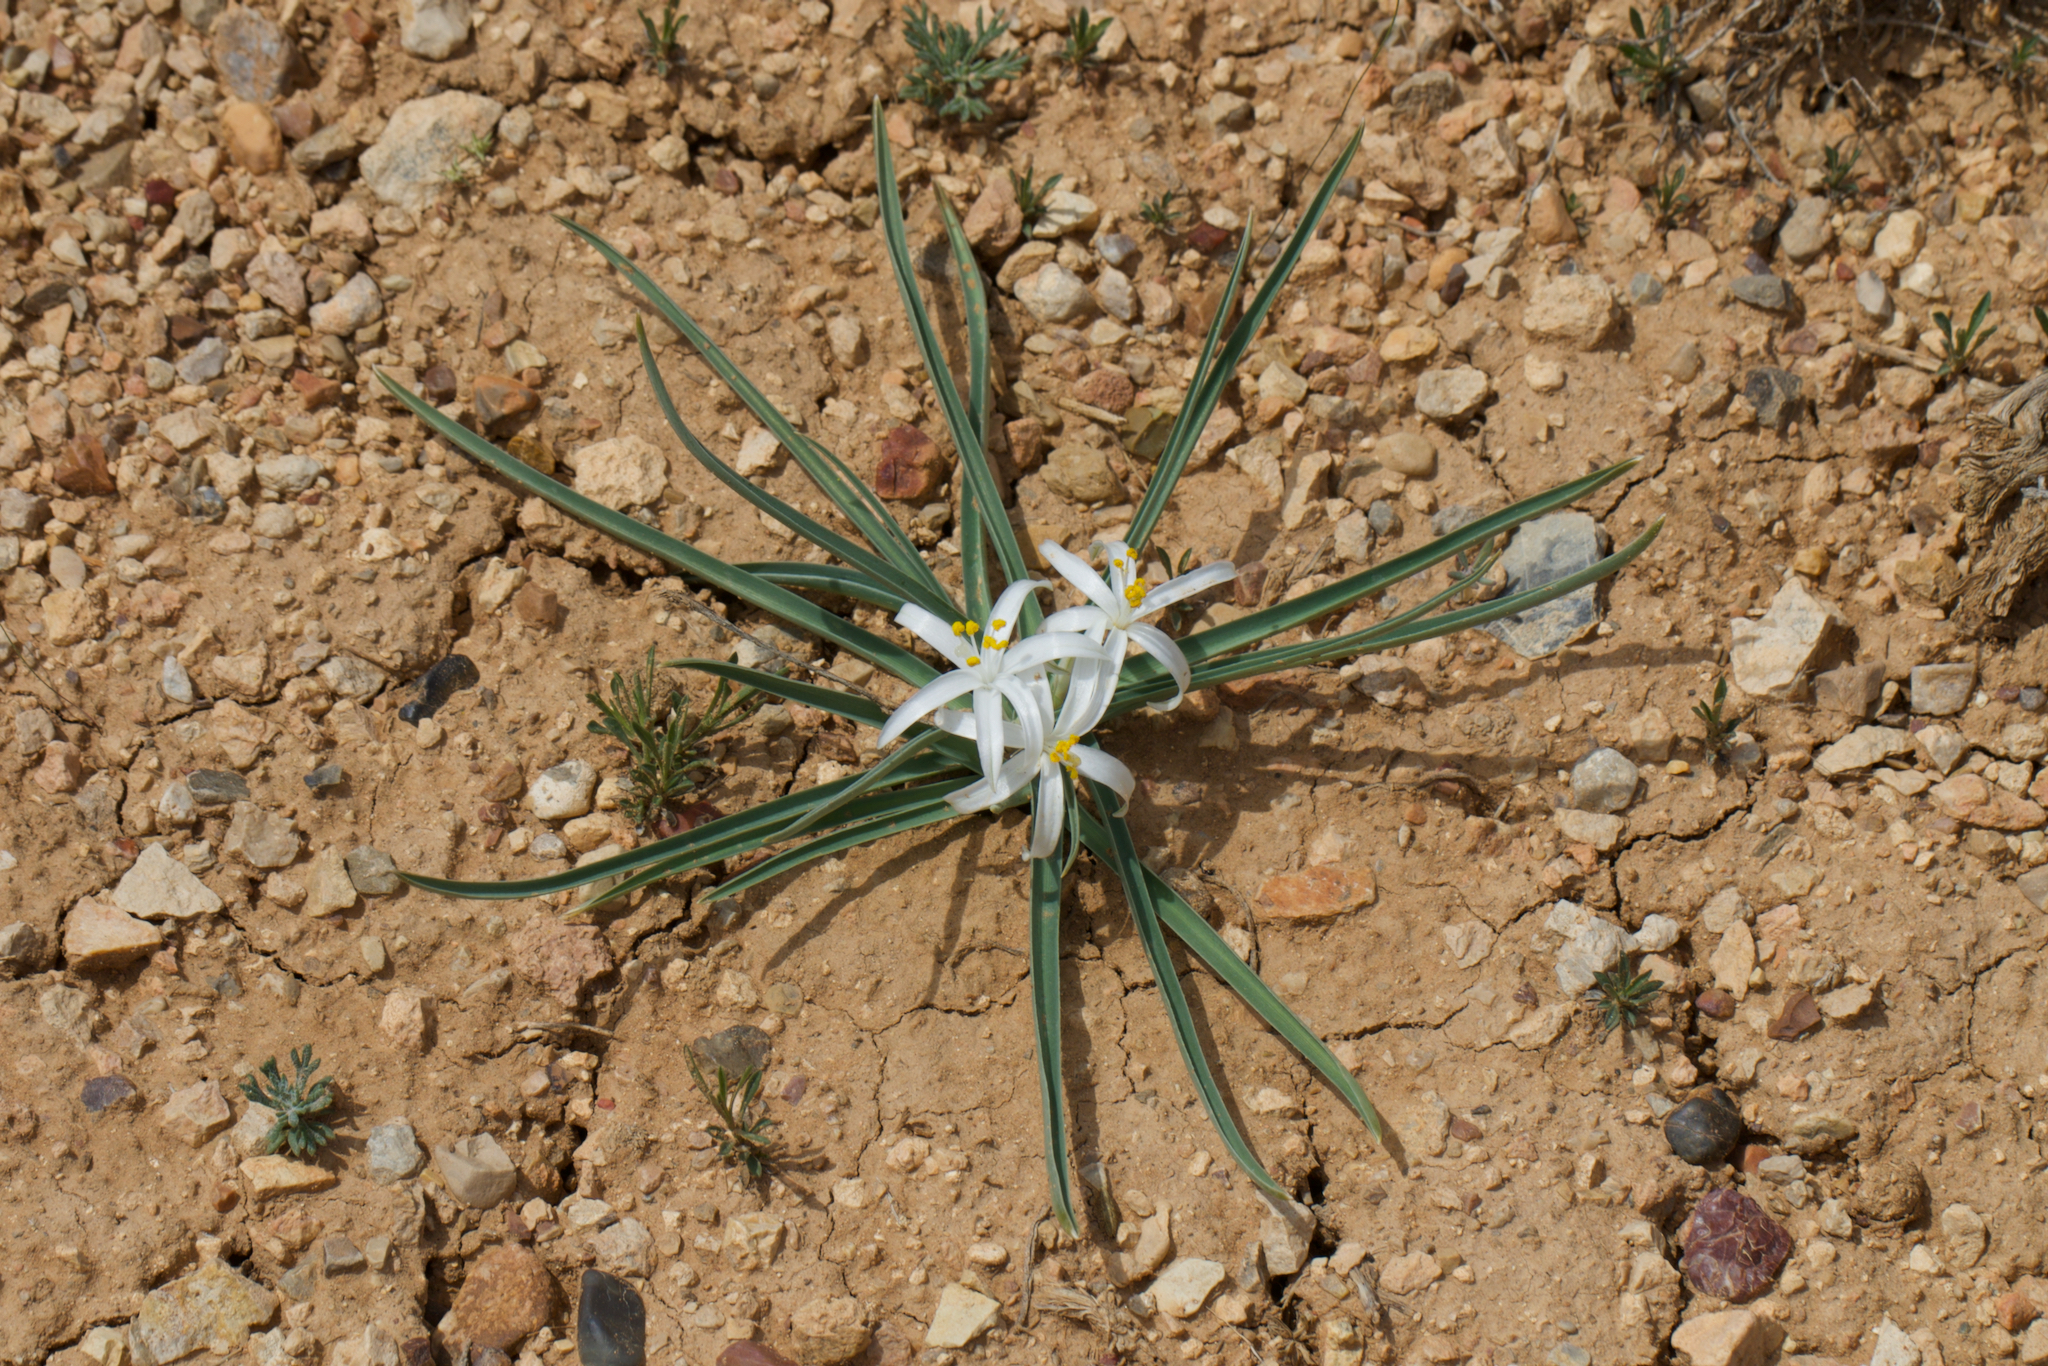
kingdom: Plantae
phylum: Tracheophyta
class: Liliopsida
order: Asparagales
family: Asparagaceae
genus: Leucocrinum
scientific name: Leucocrinum montanum
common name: Mountain-lily
